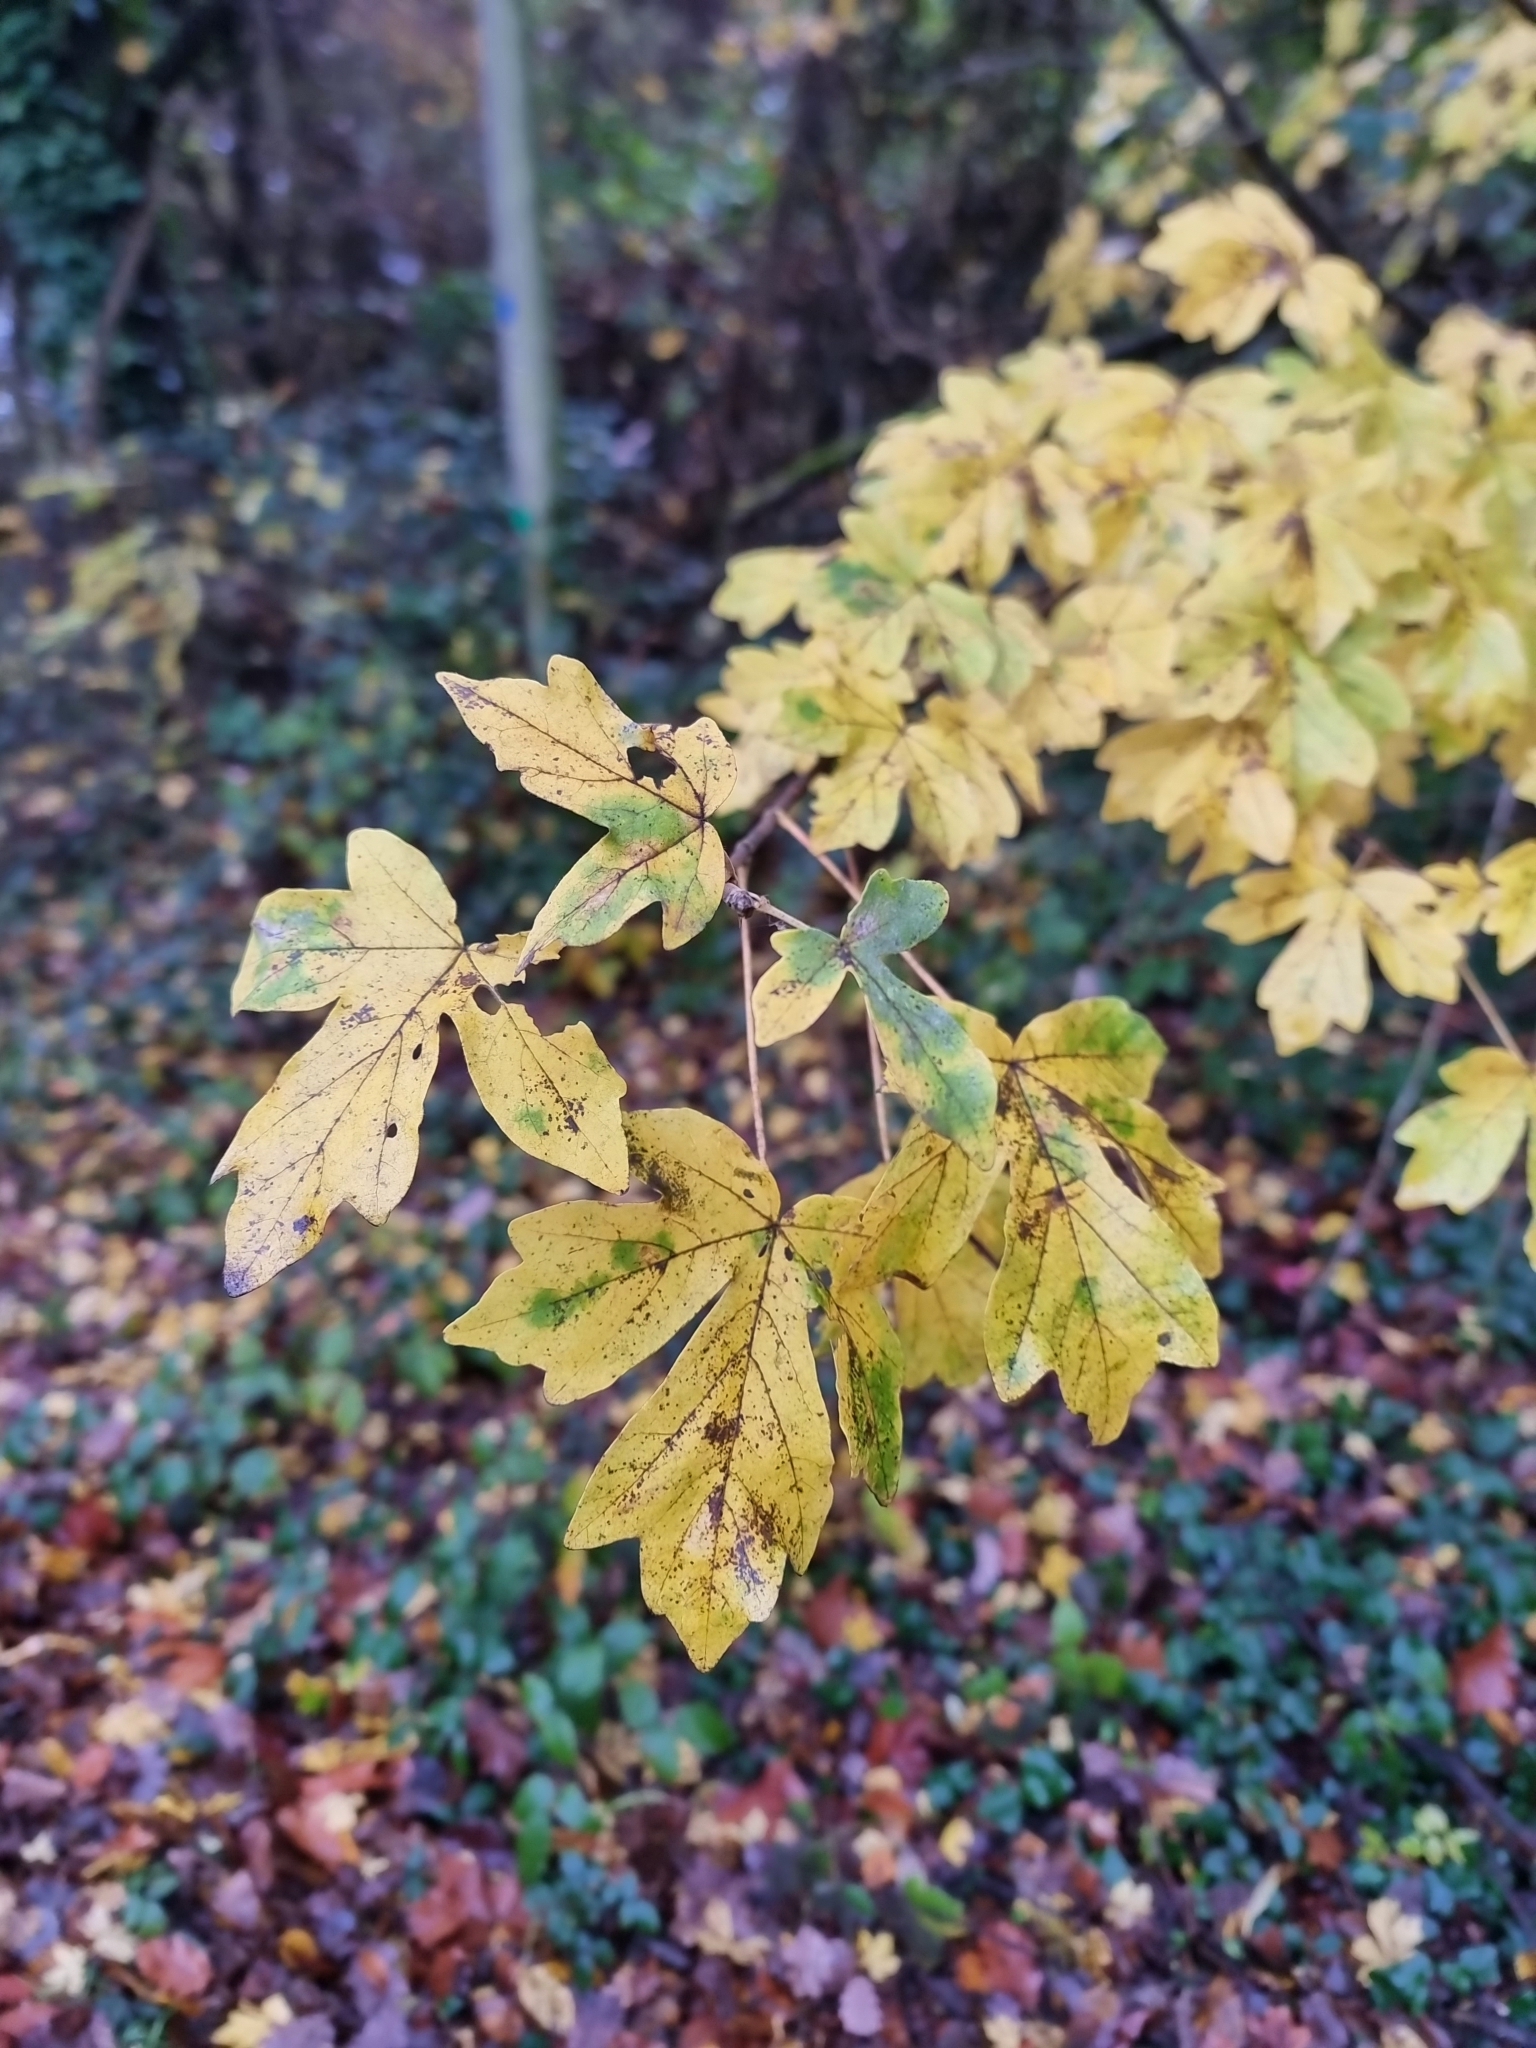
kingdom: Plantae
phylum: Tracheophyta
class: Magnoliopsida
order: Sapindales
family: Sapindaceae
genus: Acer
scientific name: Acer campestre
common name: Field maple
